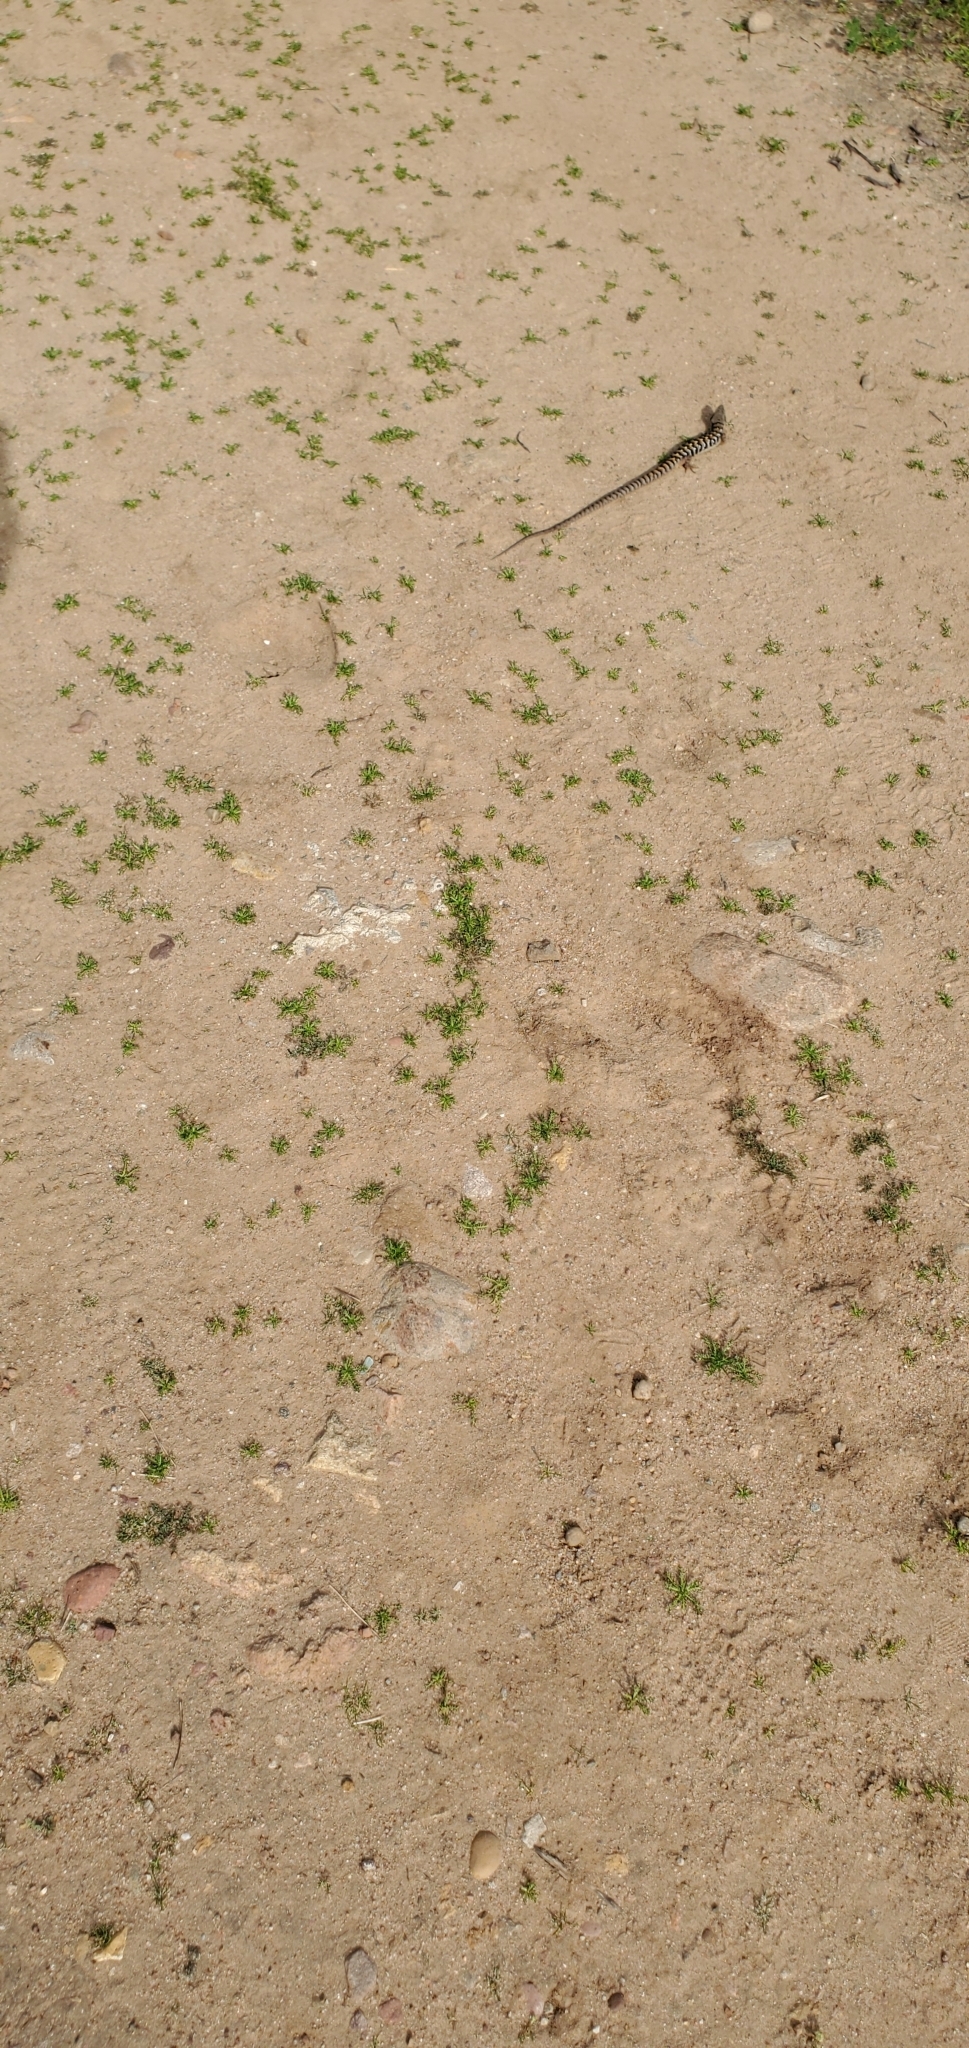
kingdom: Animalia
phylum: Chordata
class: Squamata
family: Anguidae
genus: Elgaria
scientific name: Elgaria multicarinata
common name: Southern alligator lizard
